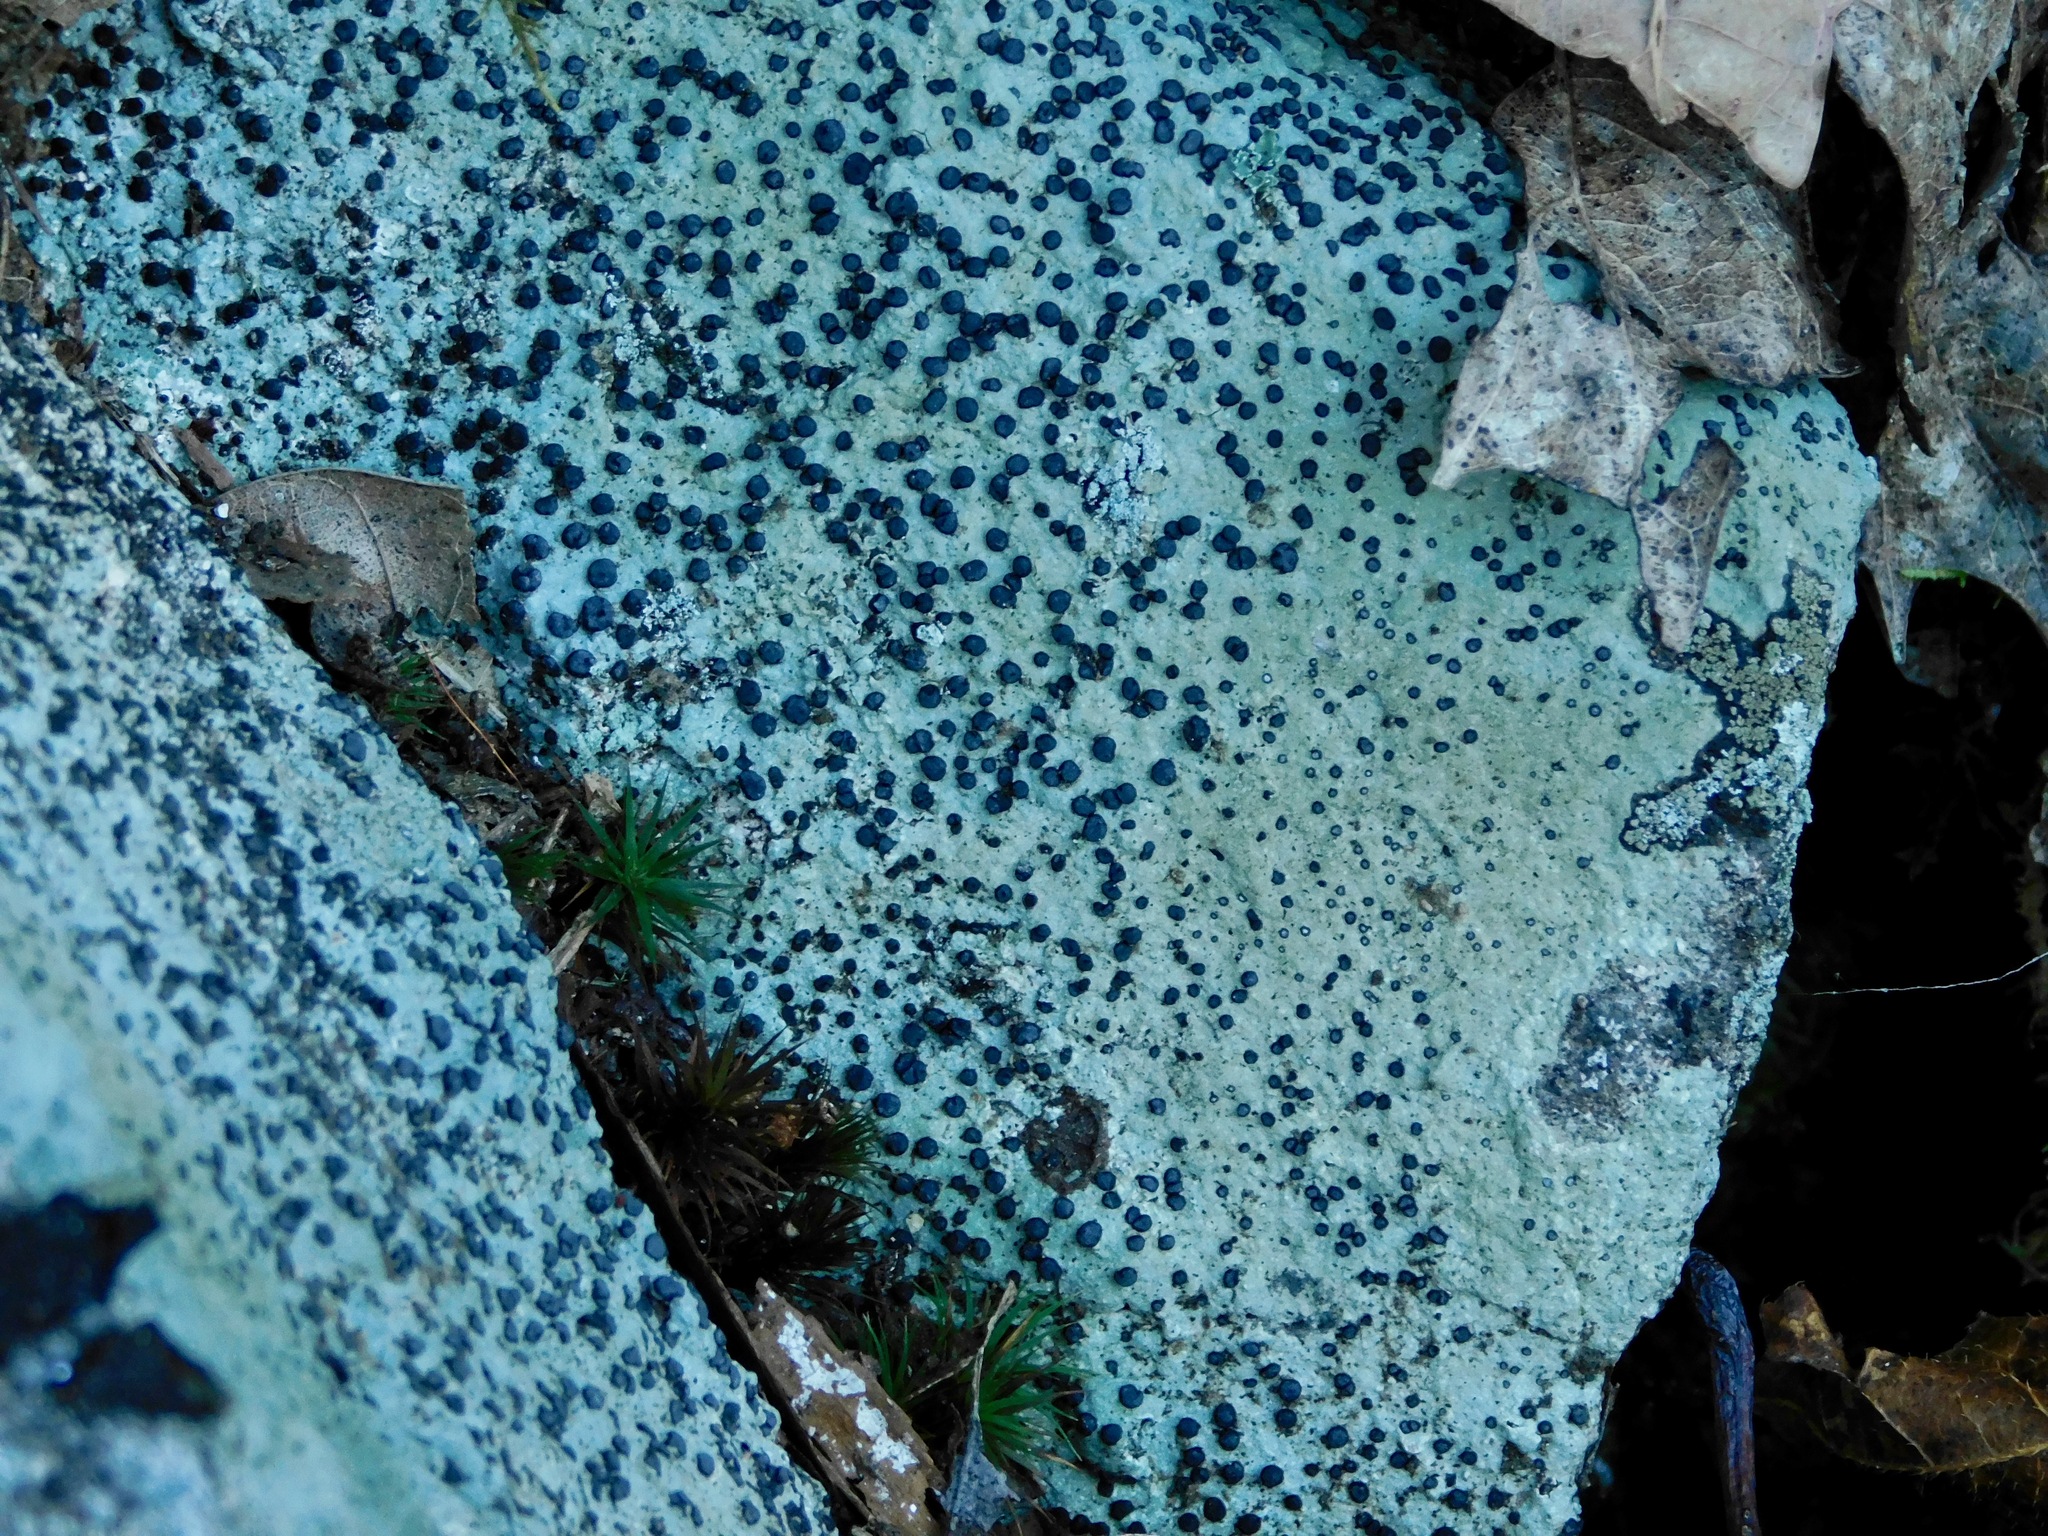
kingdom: Fungi
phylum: Ascomycota
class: Lecanoromycetes
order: Lecideales
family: Lecideaceae
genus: Porpidia
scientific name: Porpidia albocaerulescens
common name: Smokey-eyed boulder lichen
